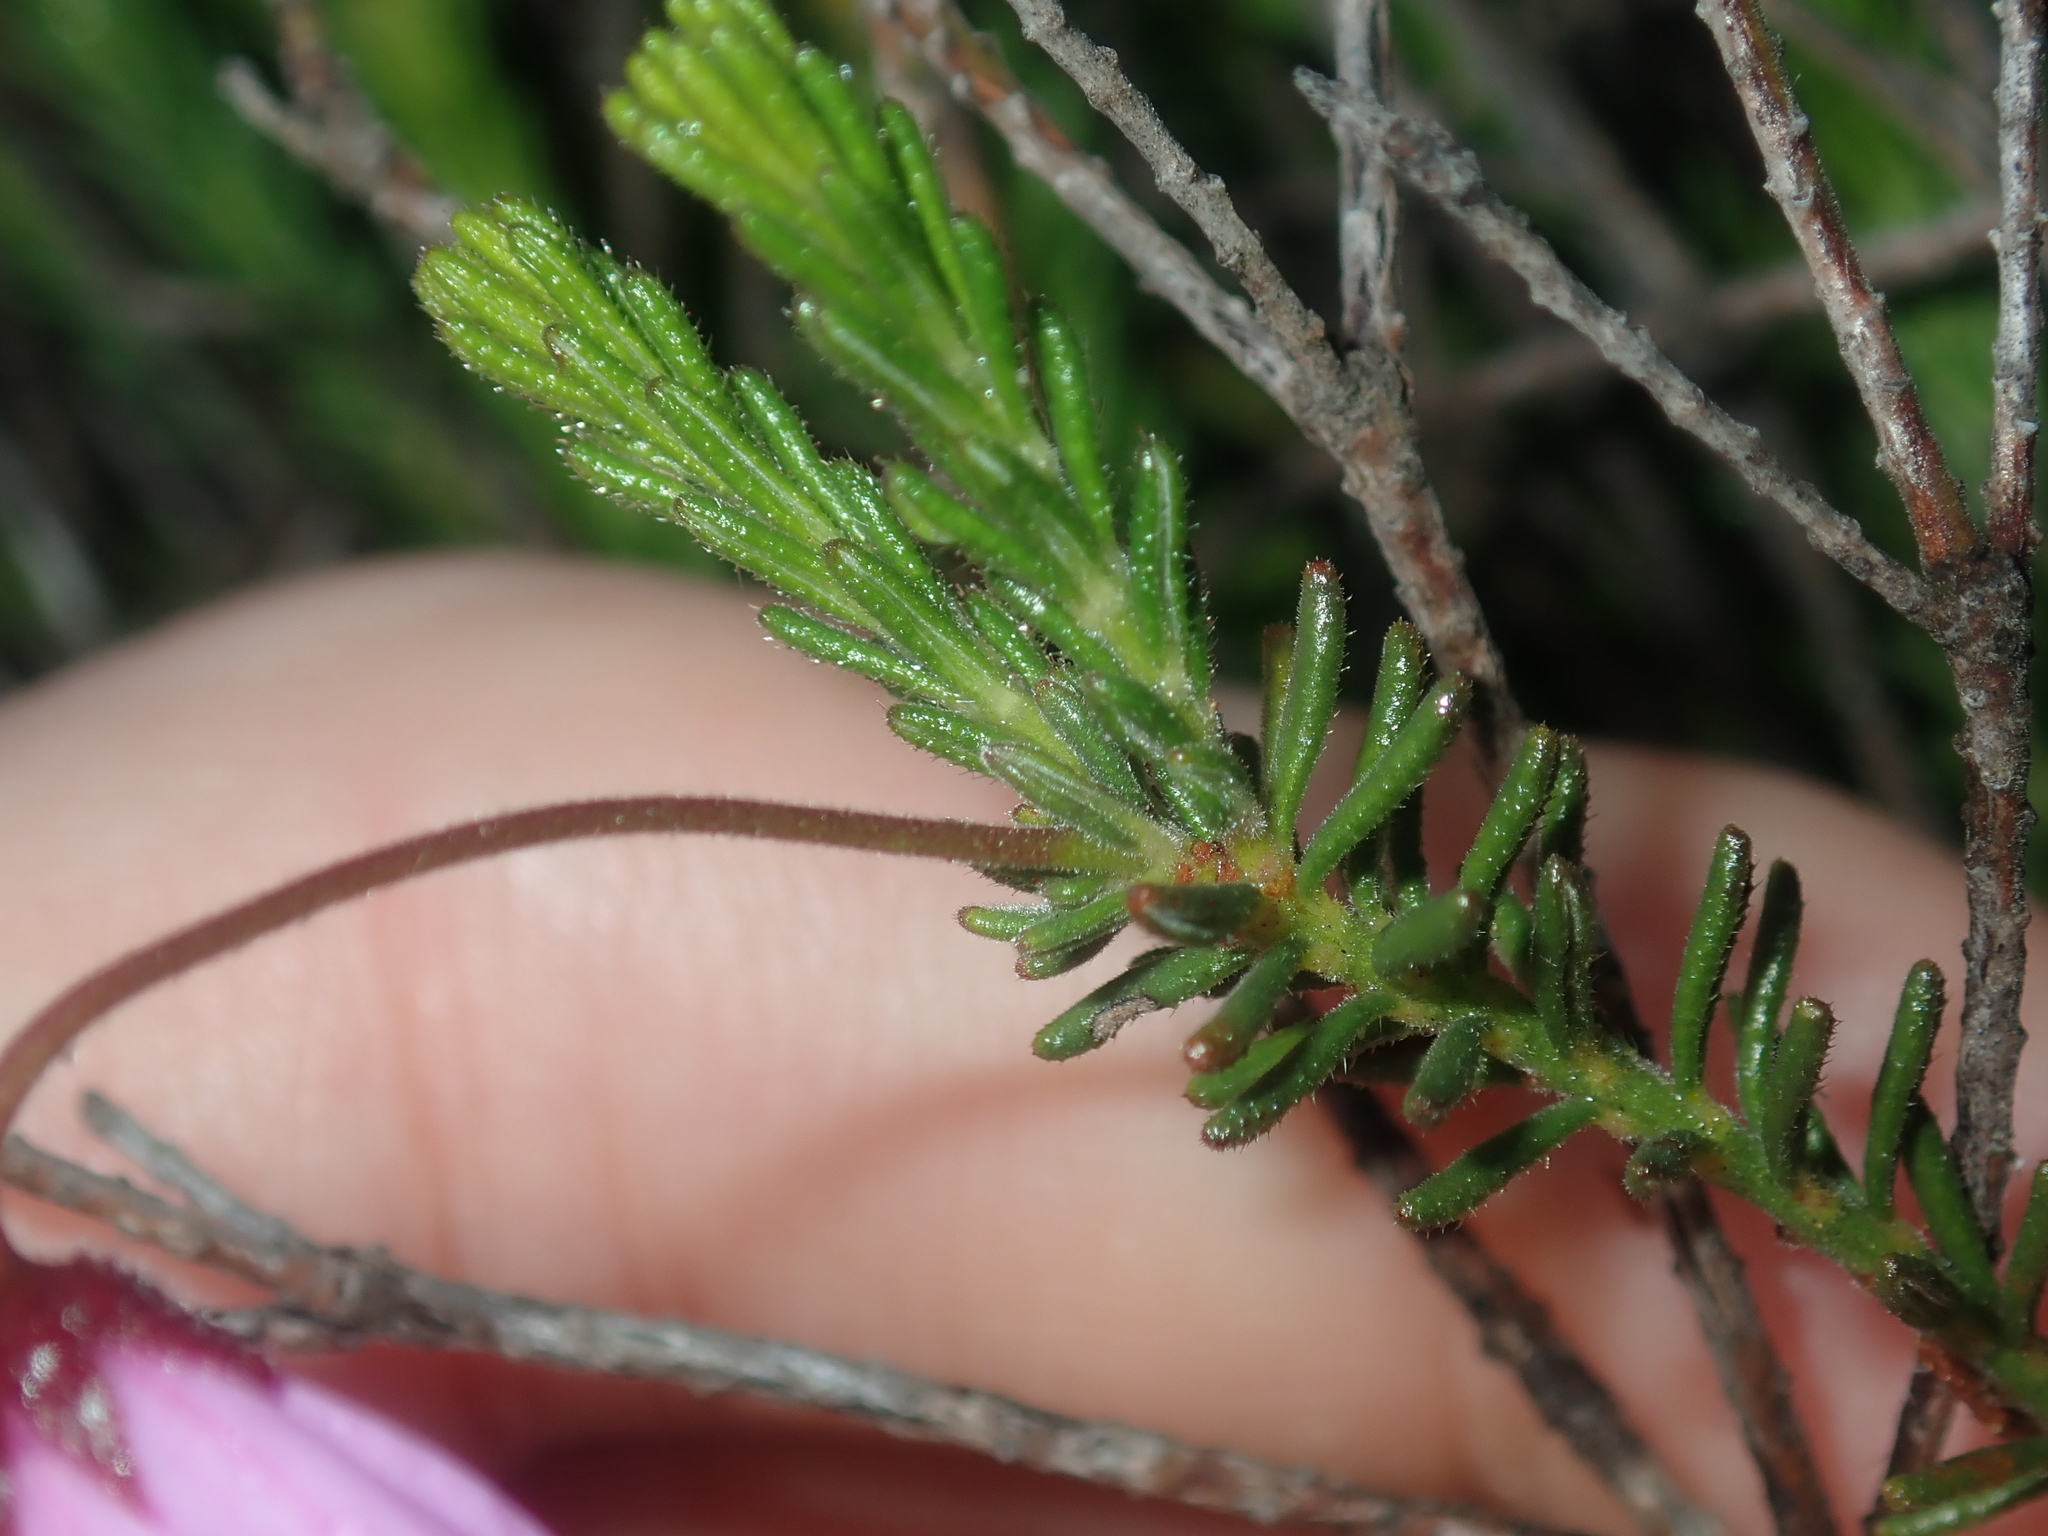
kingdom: Plantae
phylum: Tracheophyta
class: Magnoliopsida
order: Oxalidales
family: Elaeocarpaceae
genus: Tetratheca
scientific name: Tetratheca confertifolia
